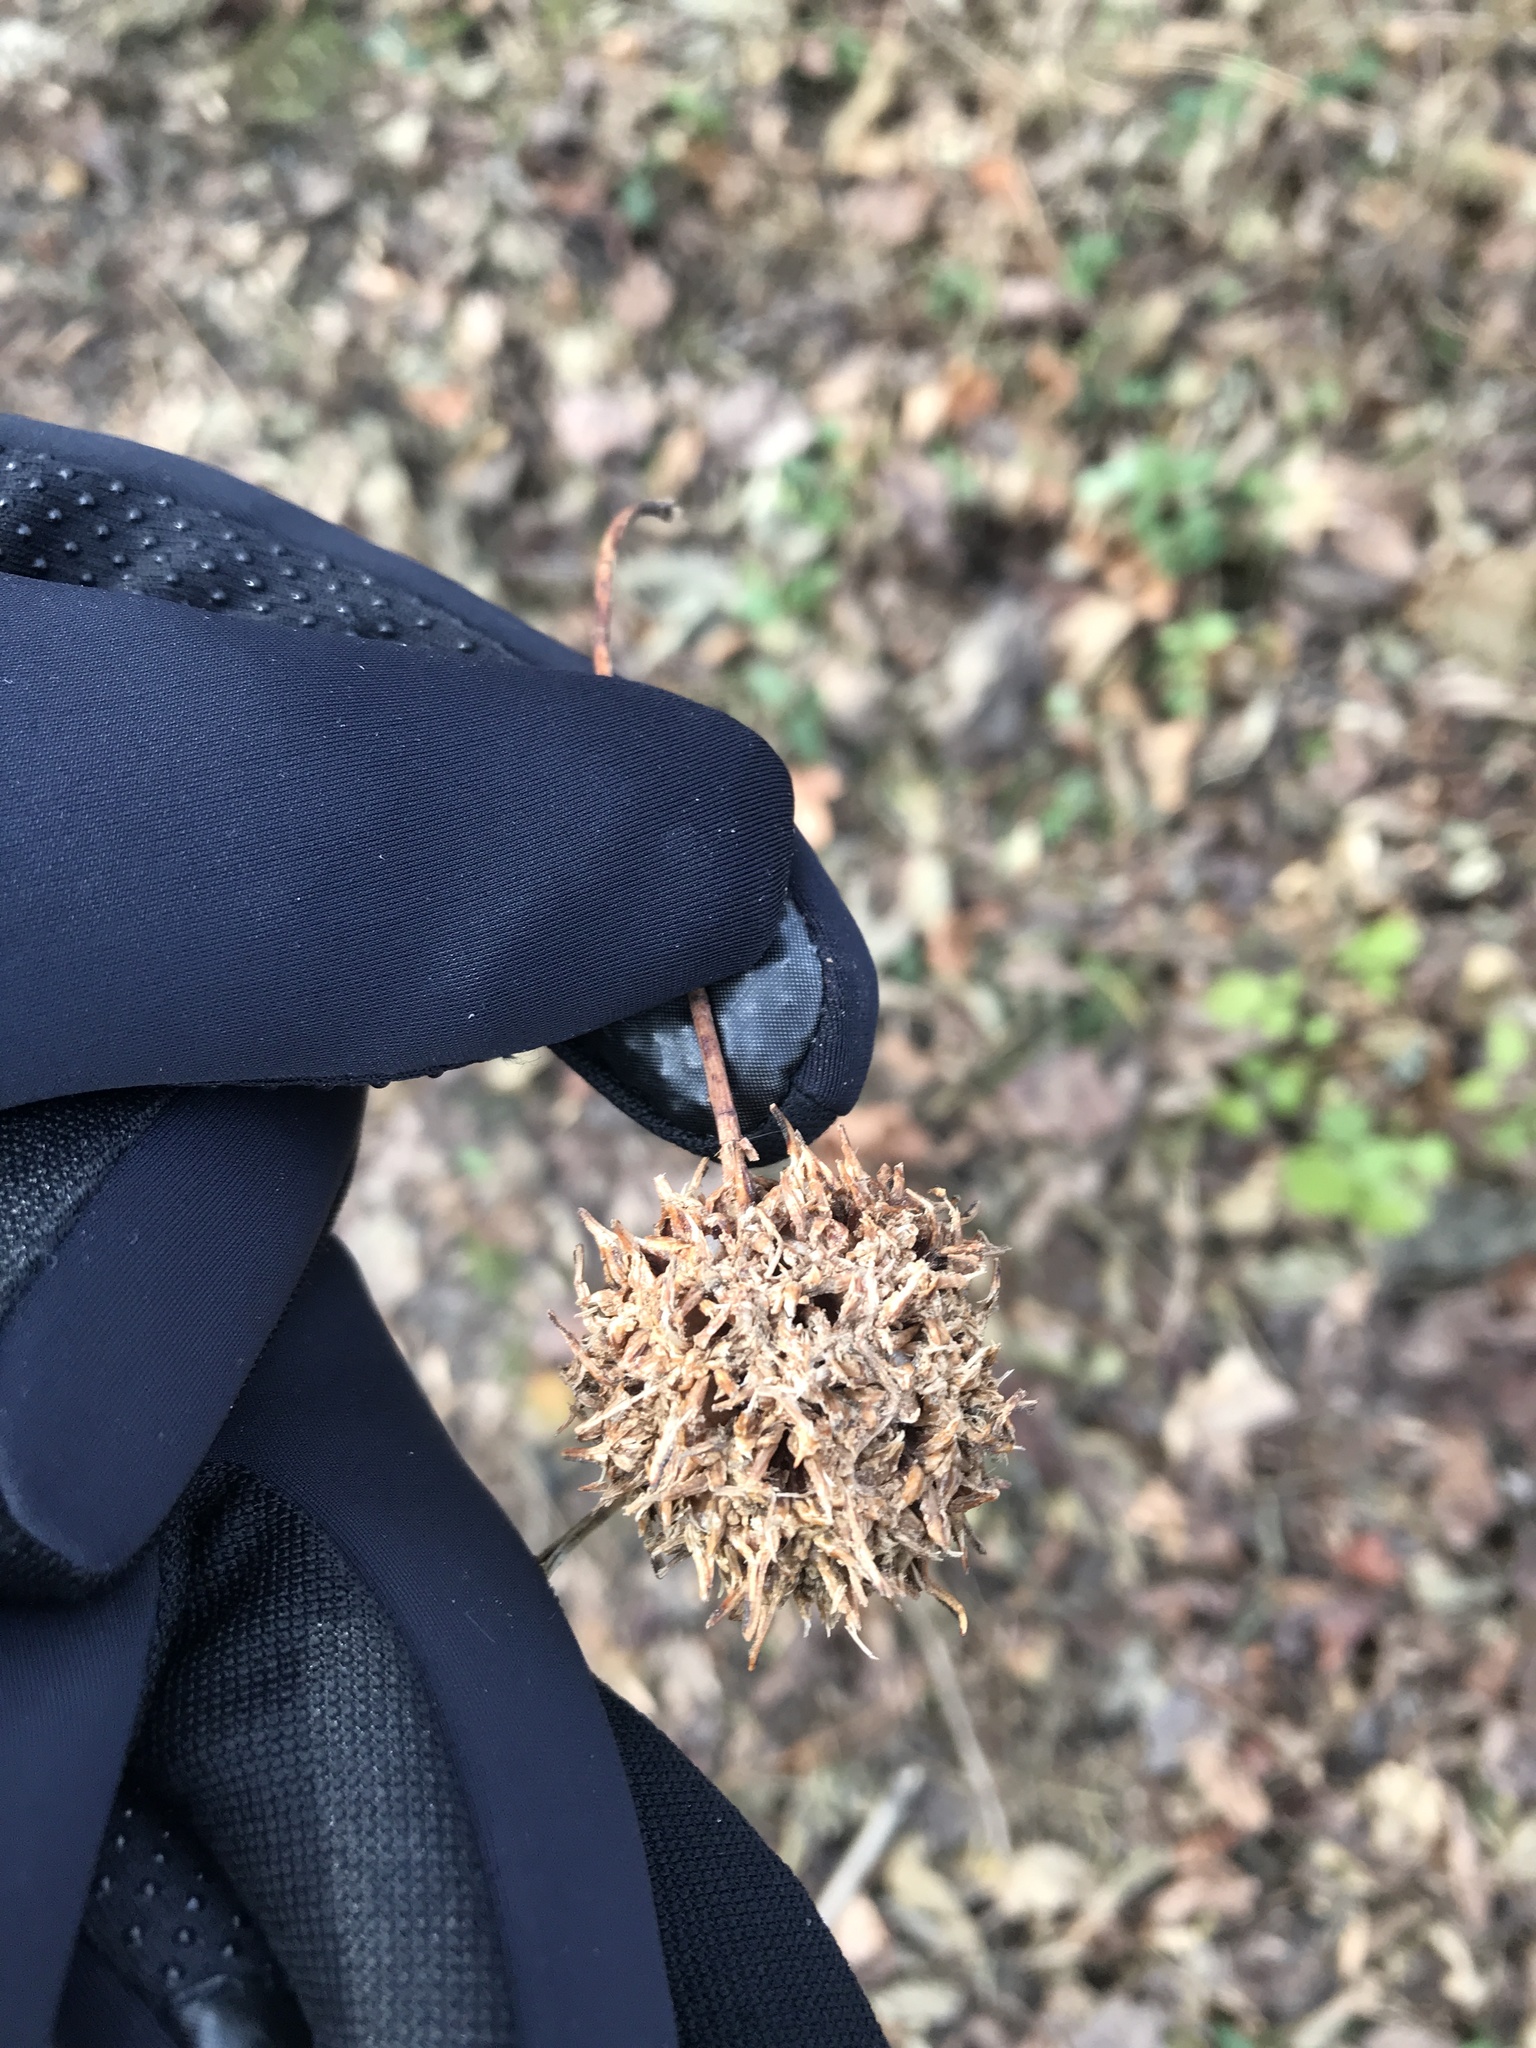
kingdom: Plantae
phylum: Tracheophyta
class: Magnoliopsida
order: Saxifragales
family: Altingiaceae
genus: Liquidambar
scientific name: Liquidambar styraciflua
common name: Sweet gum
